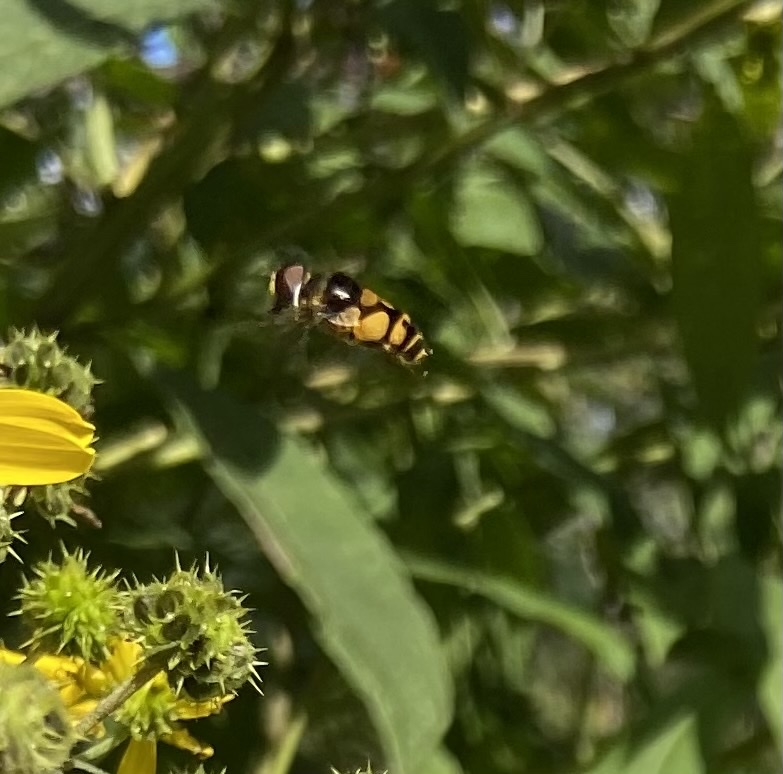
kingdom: Animalia
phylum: Arthropoda
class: Insecta
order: Diptera
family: Syrphidae
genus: Eristalis
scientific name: Eristalis transversa
